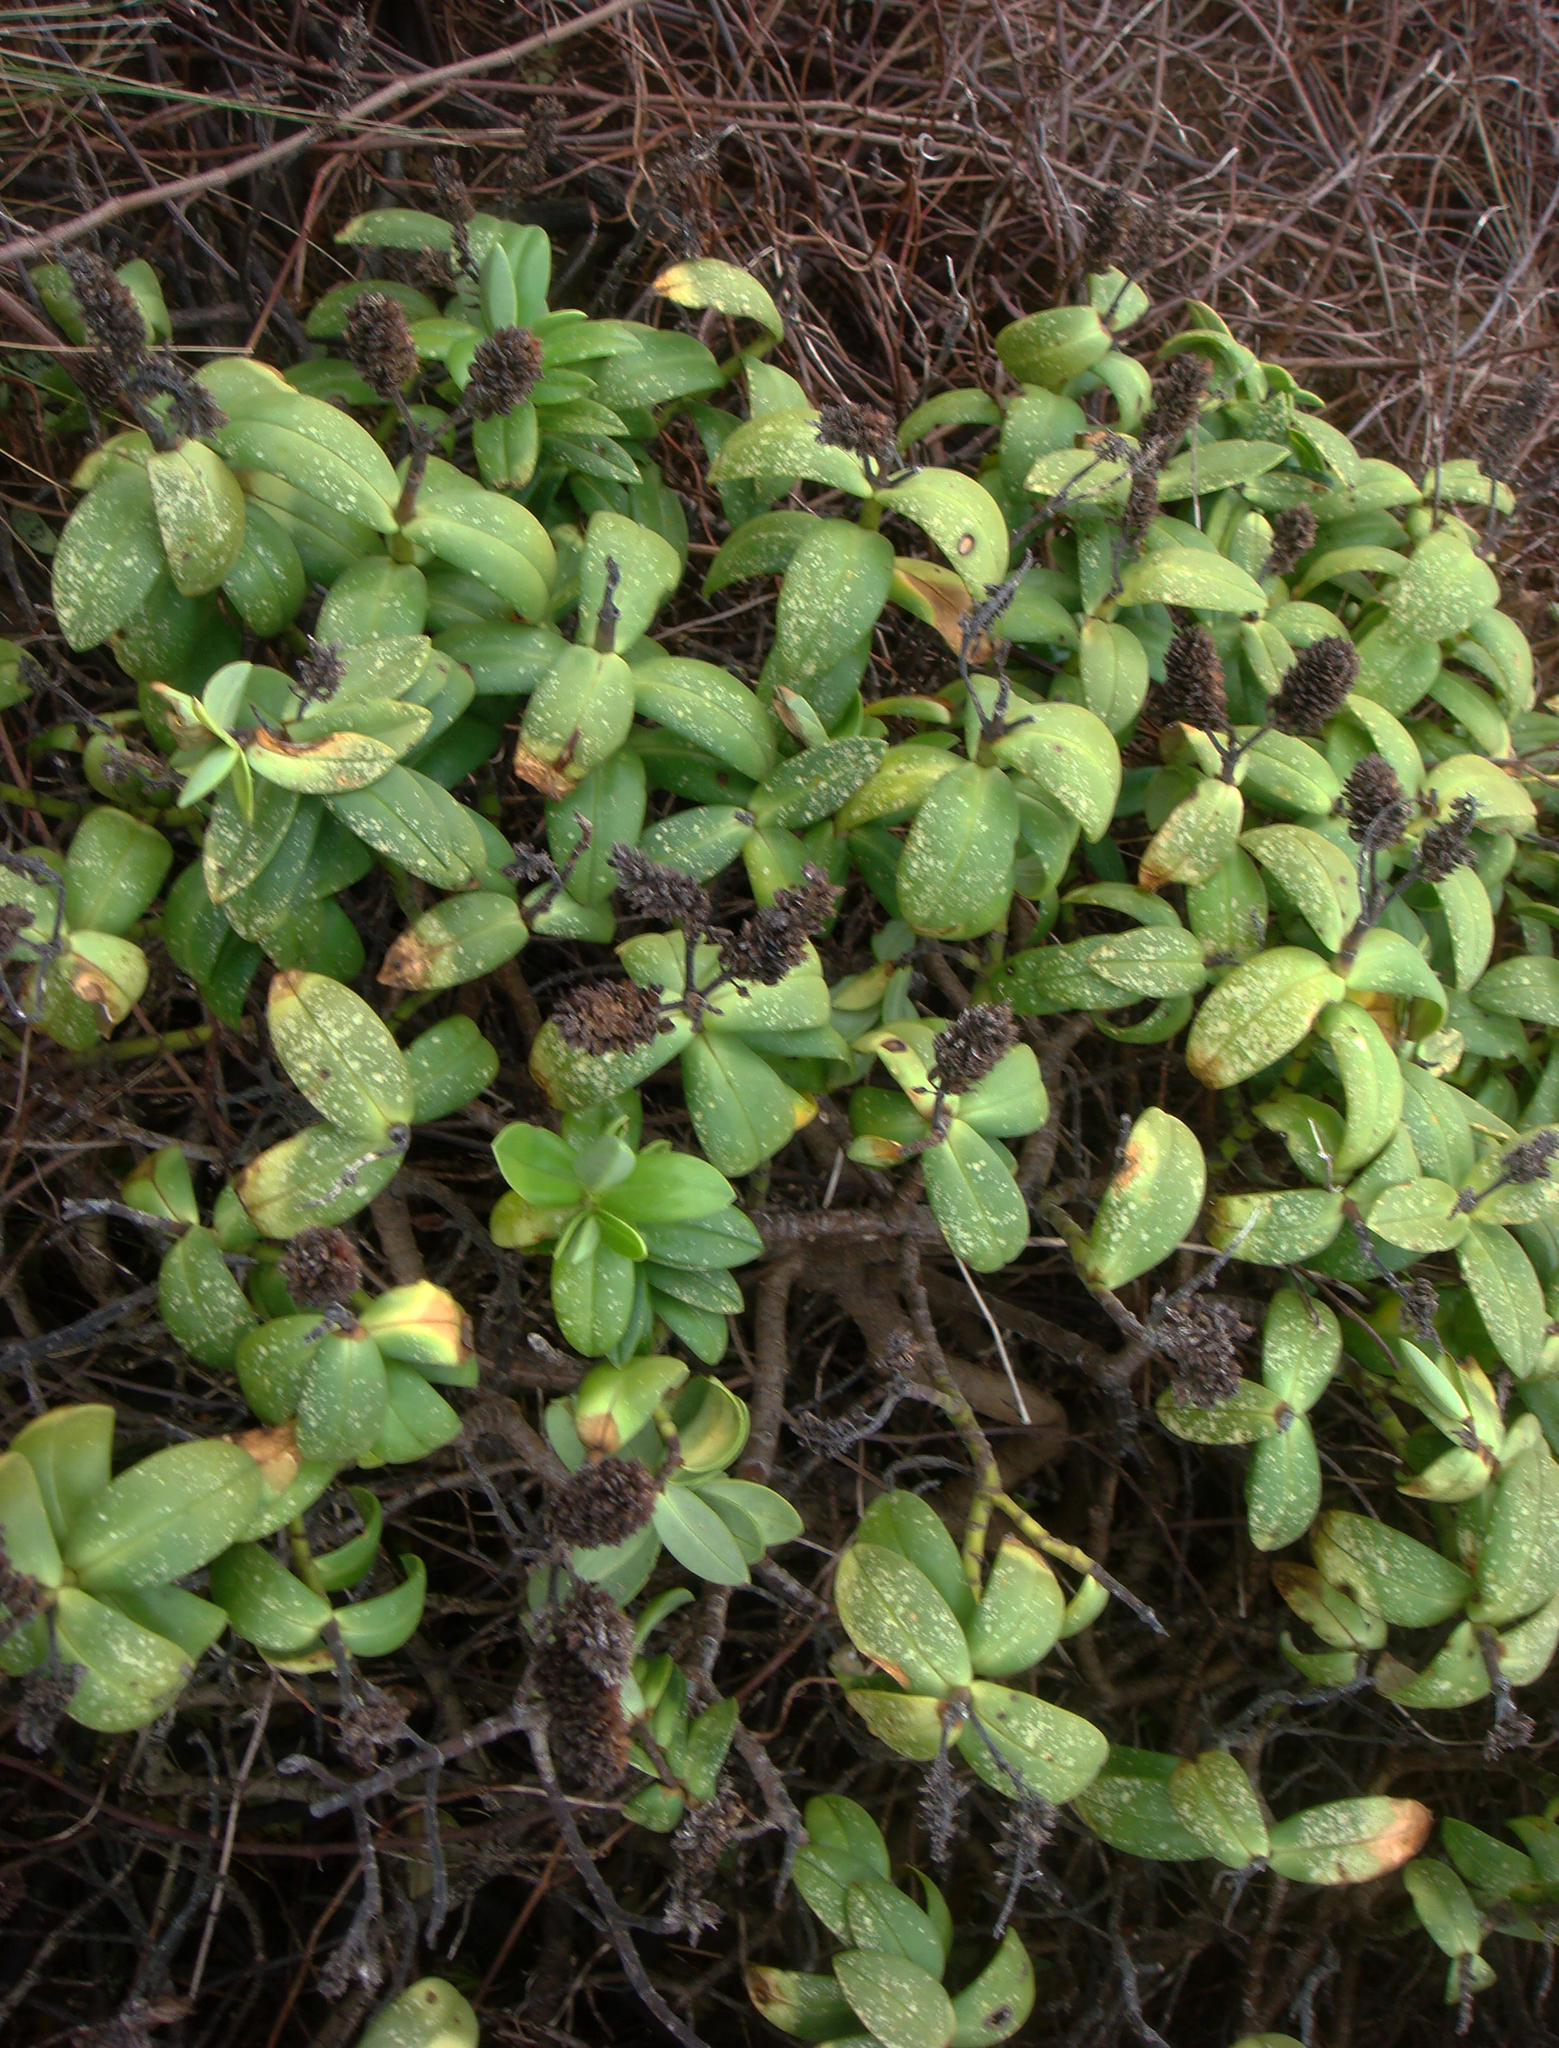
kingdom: Plantae
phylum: Tracheophyta
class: Magnoliopsida
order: Lamiales
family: Plantaginaceae
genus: Veronica
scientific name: Veronica chathamica
